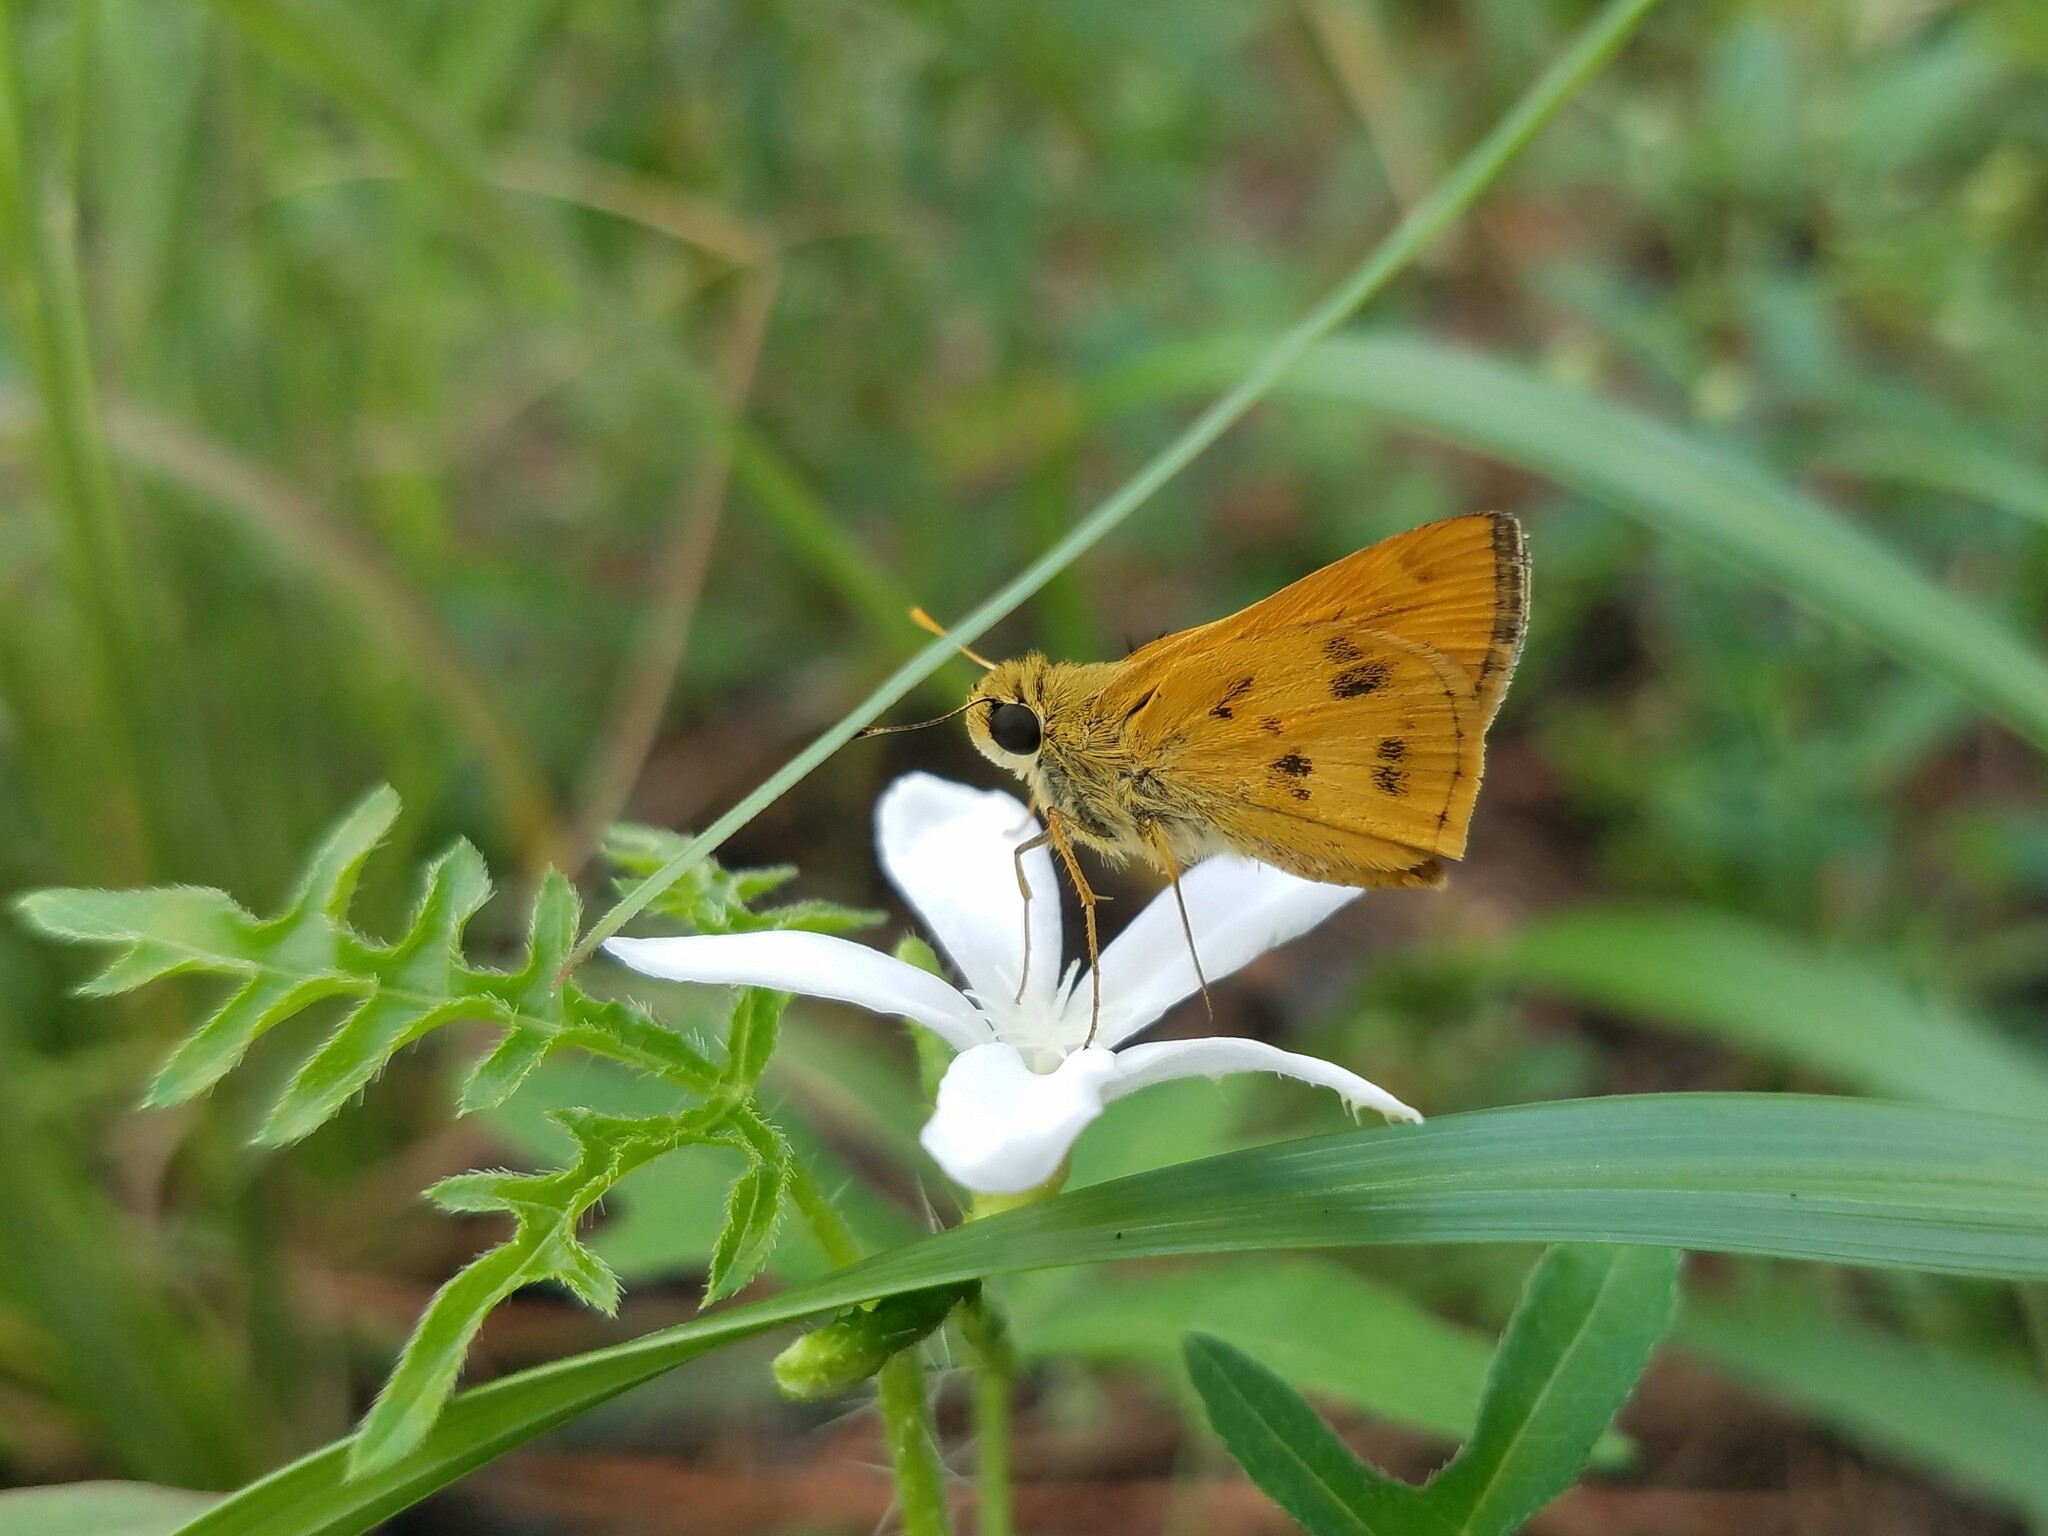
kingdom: Animalia
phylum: Arthropoda
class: Insecta
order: Lepidoptera
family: Hesperiidae
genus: Polites
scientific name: Polites vibex
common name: Whirlabout
